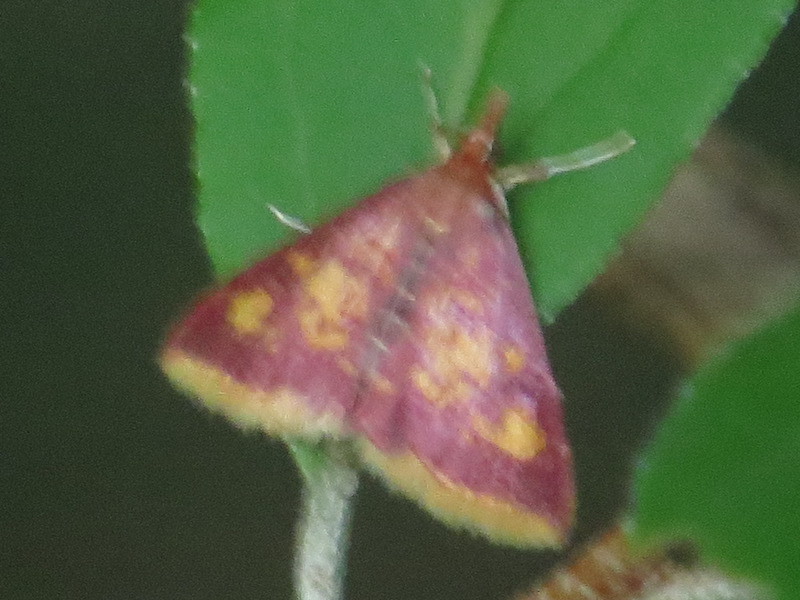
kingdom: Animalia
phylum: Arthropoda
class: Insecta
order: Lepidoptera
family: Crambidae
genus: Pyrausta
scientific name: Pyrausta acrionalis
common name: Mint-loving pyrausta moth
